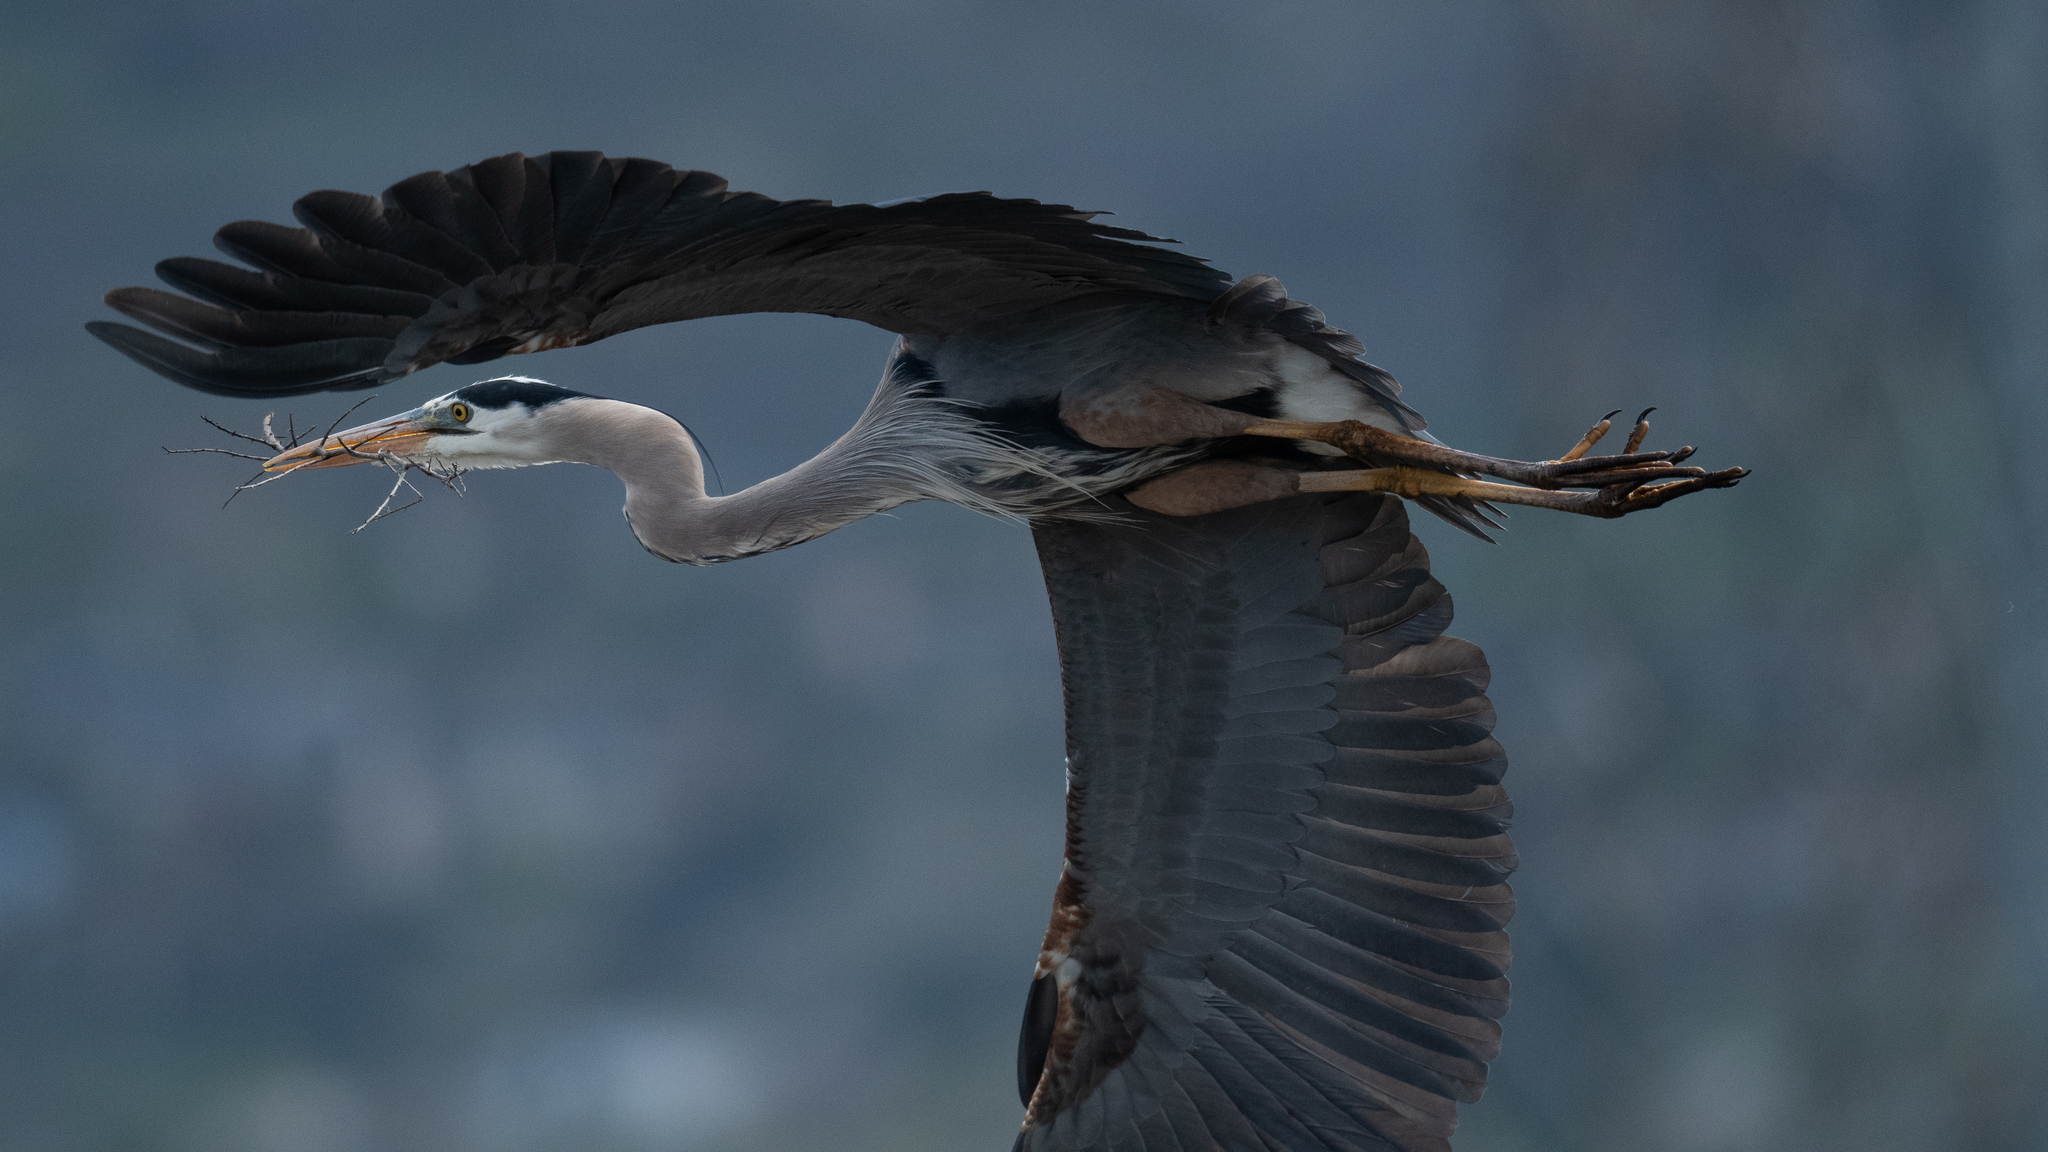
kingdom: Animalia
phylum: Chordata
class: Aves
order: Pelecaniformes
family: Ardeidae
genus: Ardea
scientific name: Ardea herodias
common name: Great blue heron
